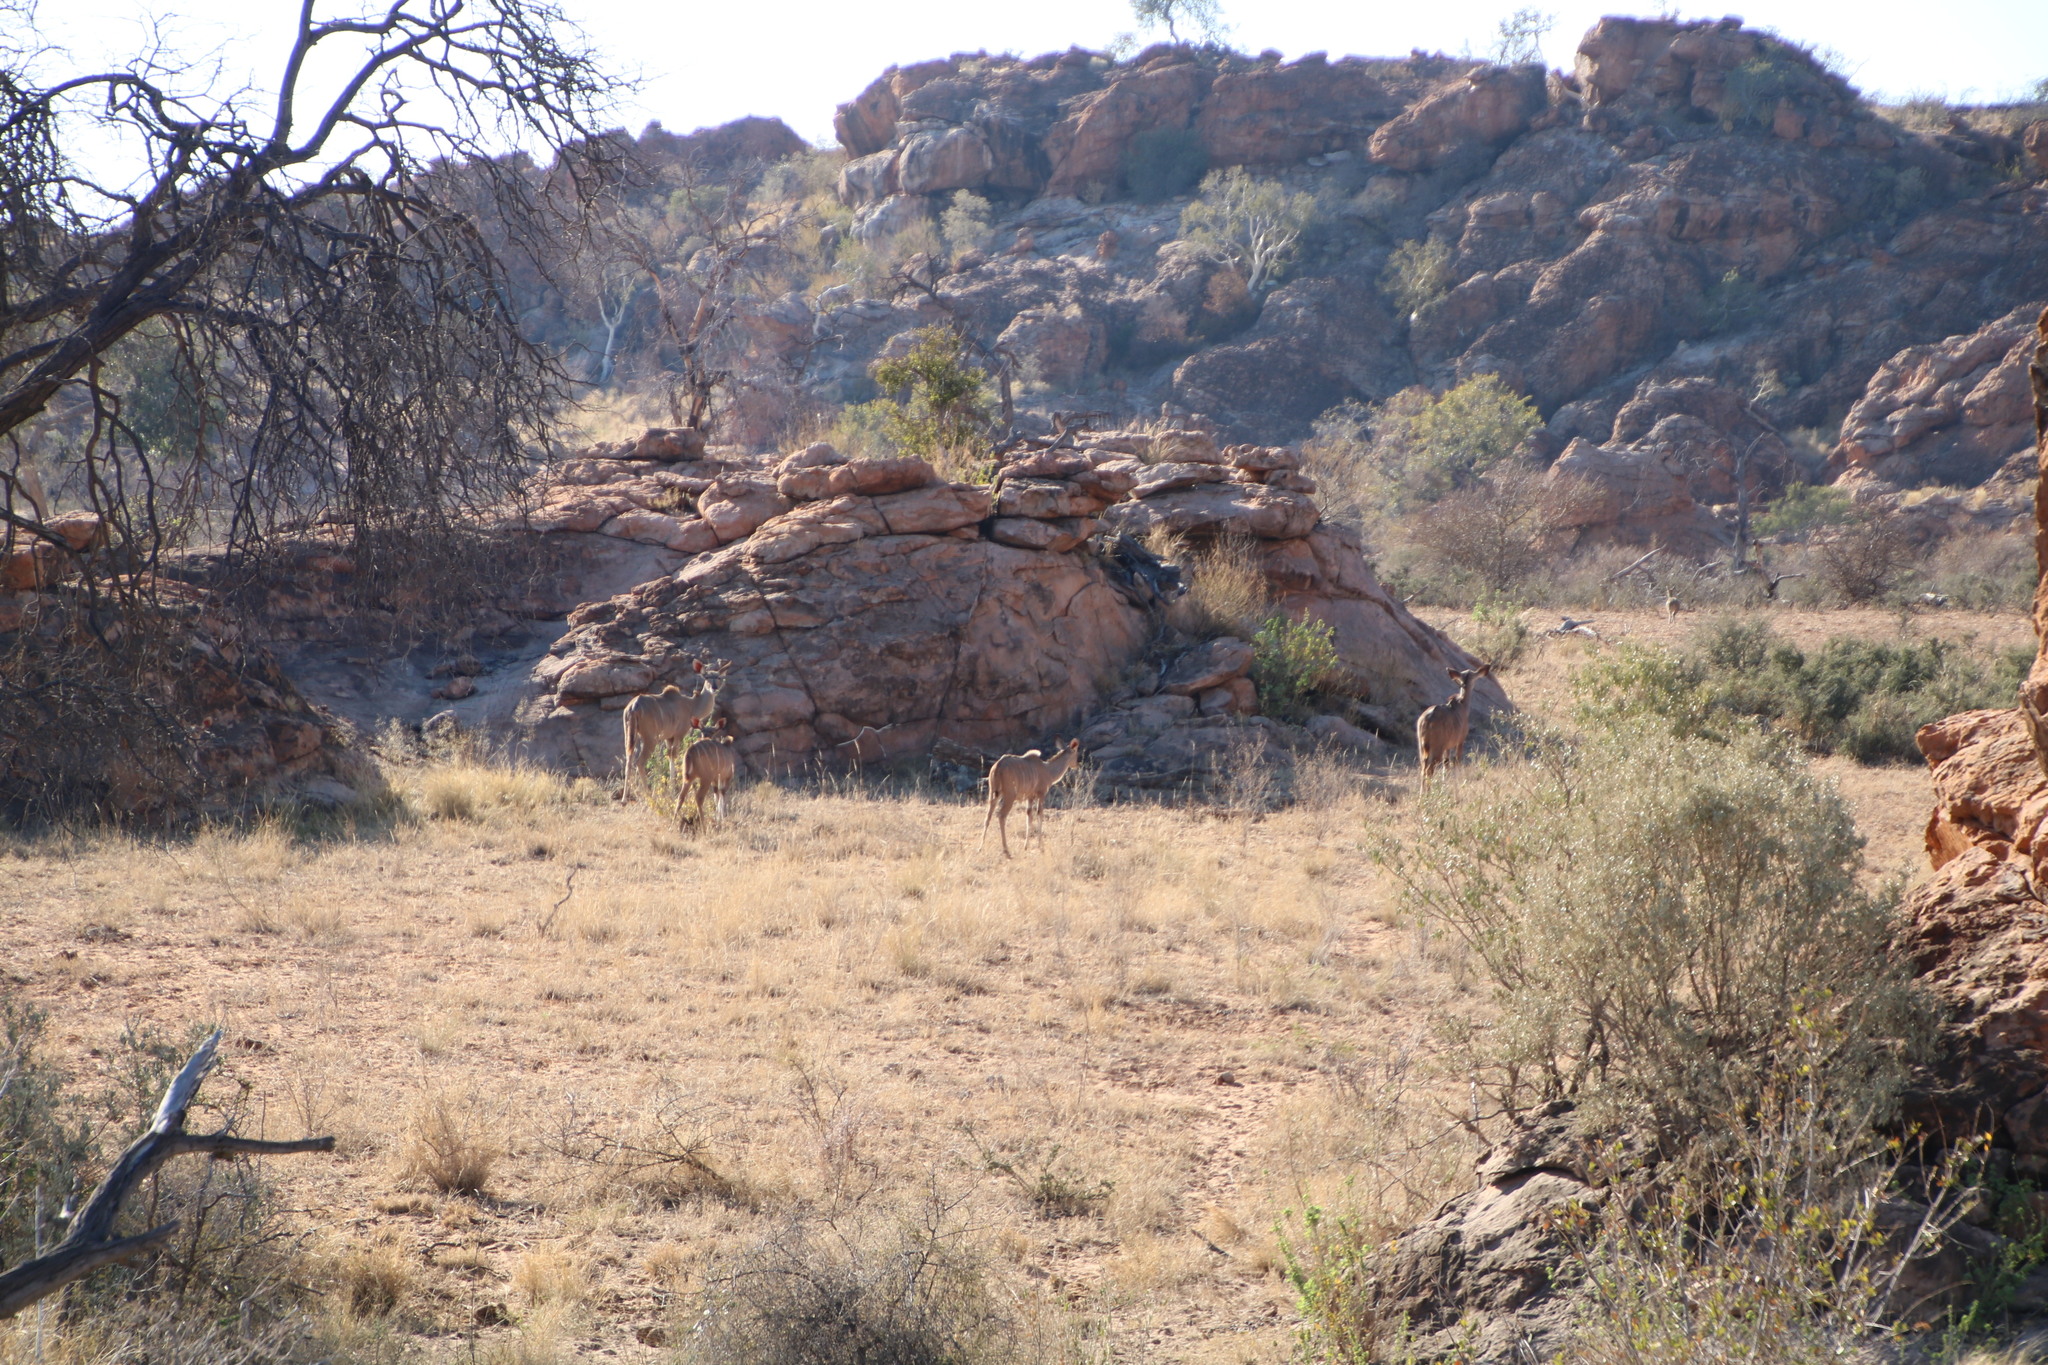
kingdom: Animalia
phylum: Chordata
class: Mammalia
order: Artiodactyla
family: Bovidae
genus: Tragelaphus
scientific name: Tragelaphus strepsiceros
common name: Greater kudu
